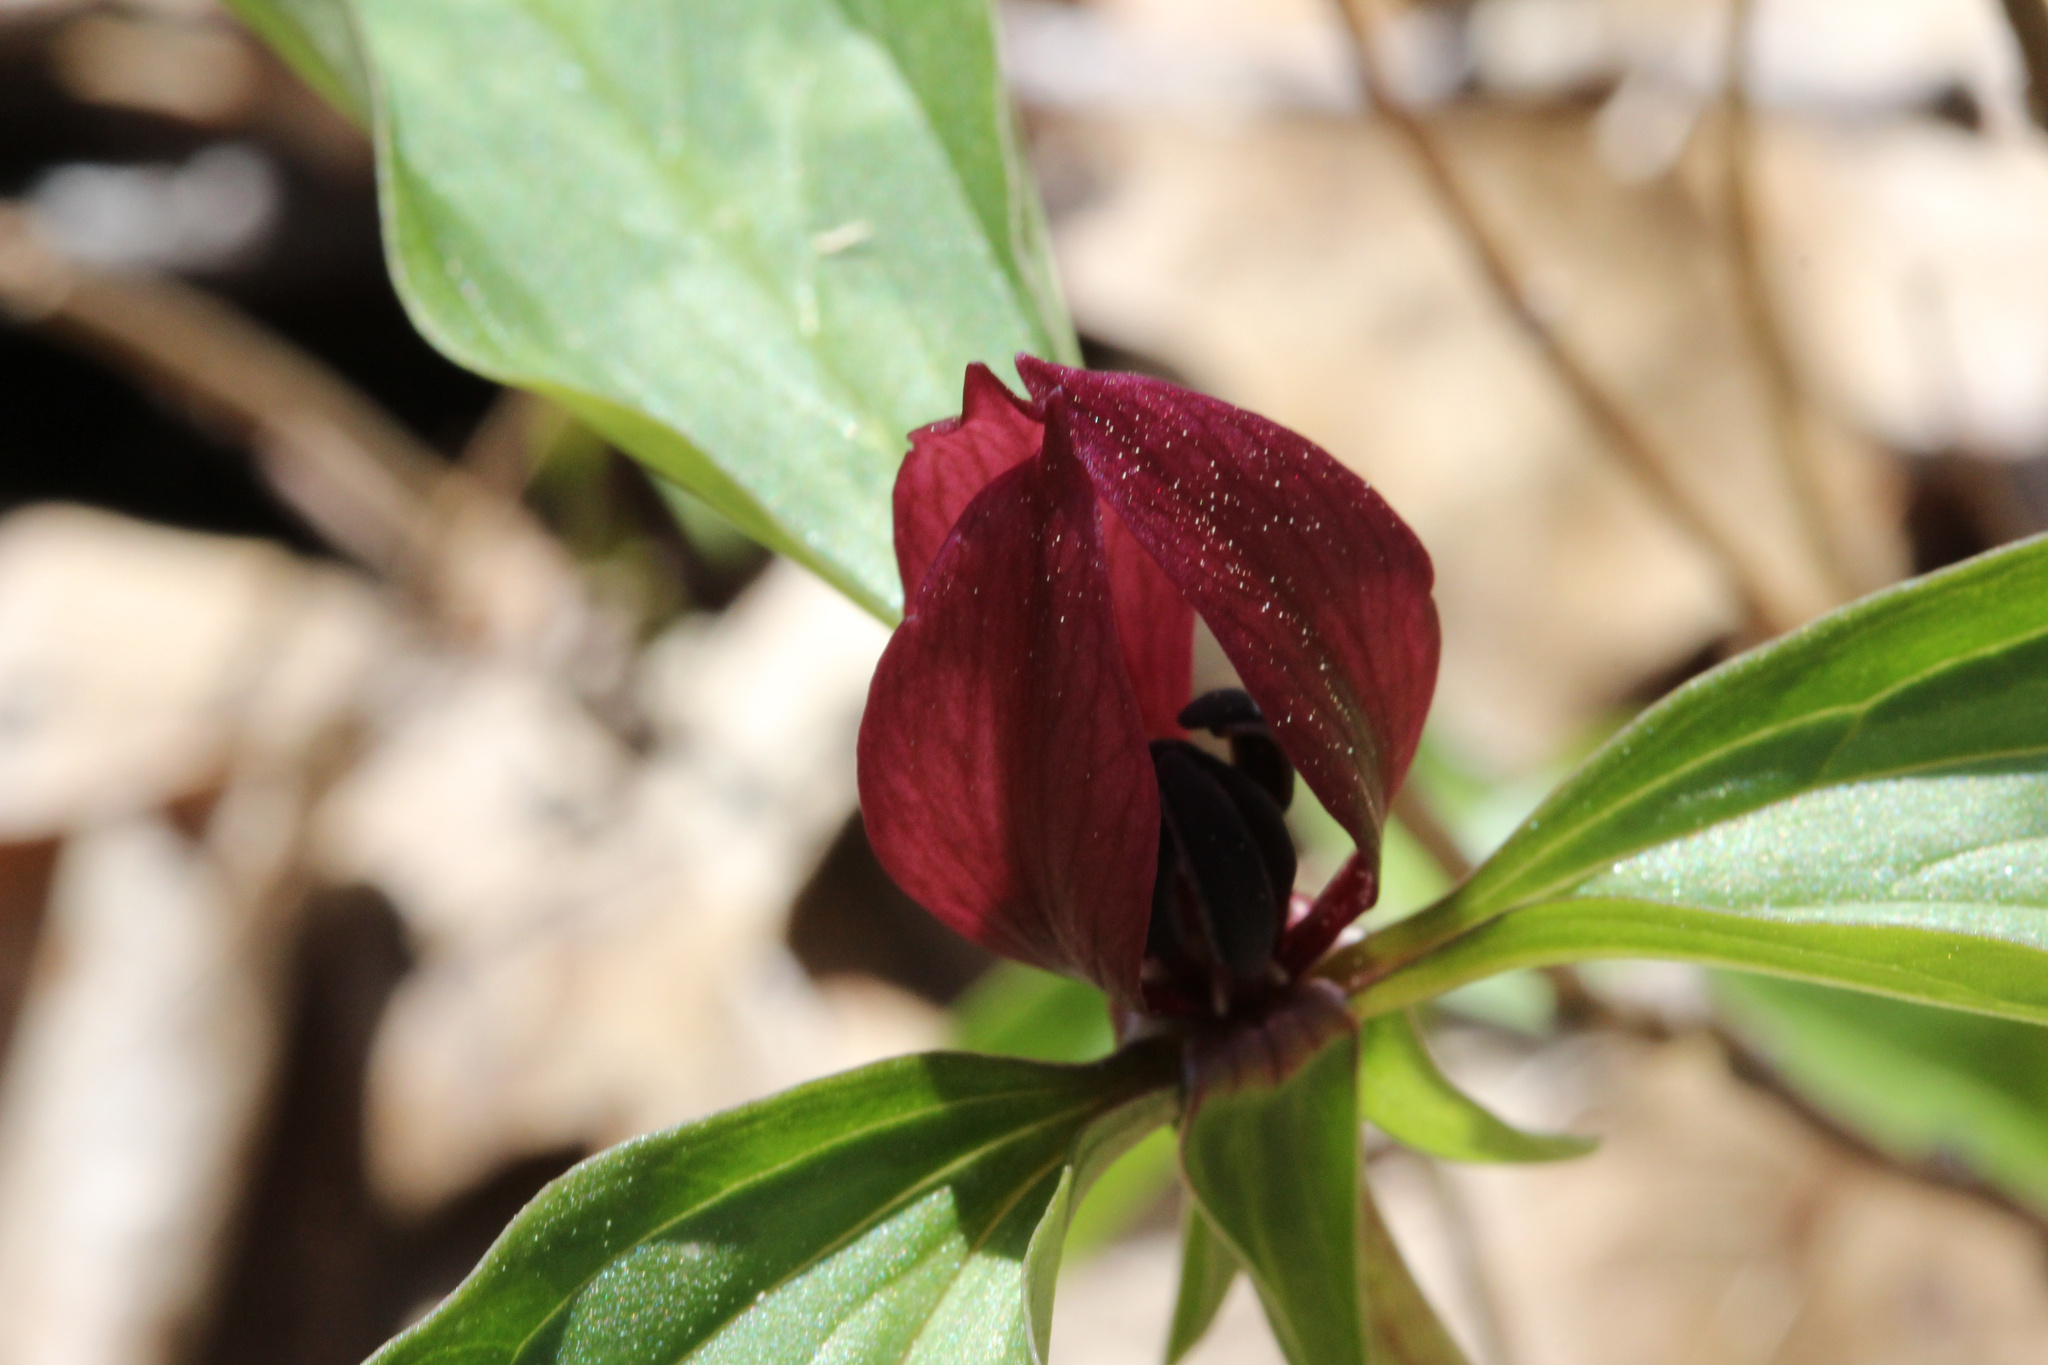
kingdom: Plantae
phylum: Tracheophyta
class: Liliopsida
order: Liliales
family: Melanthiaceae
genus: Trillium
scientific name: Trillium recurvatum
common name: Bloody butcher
